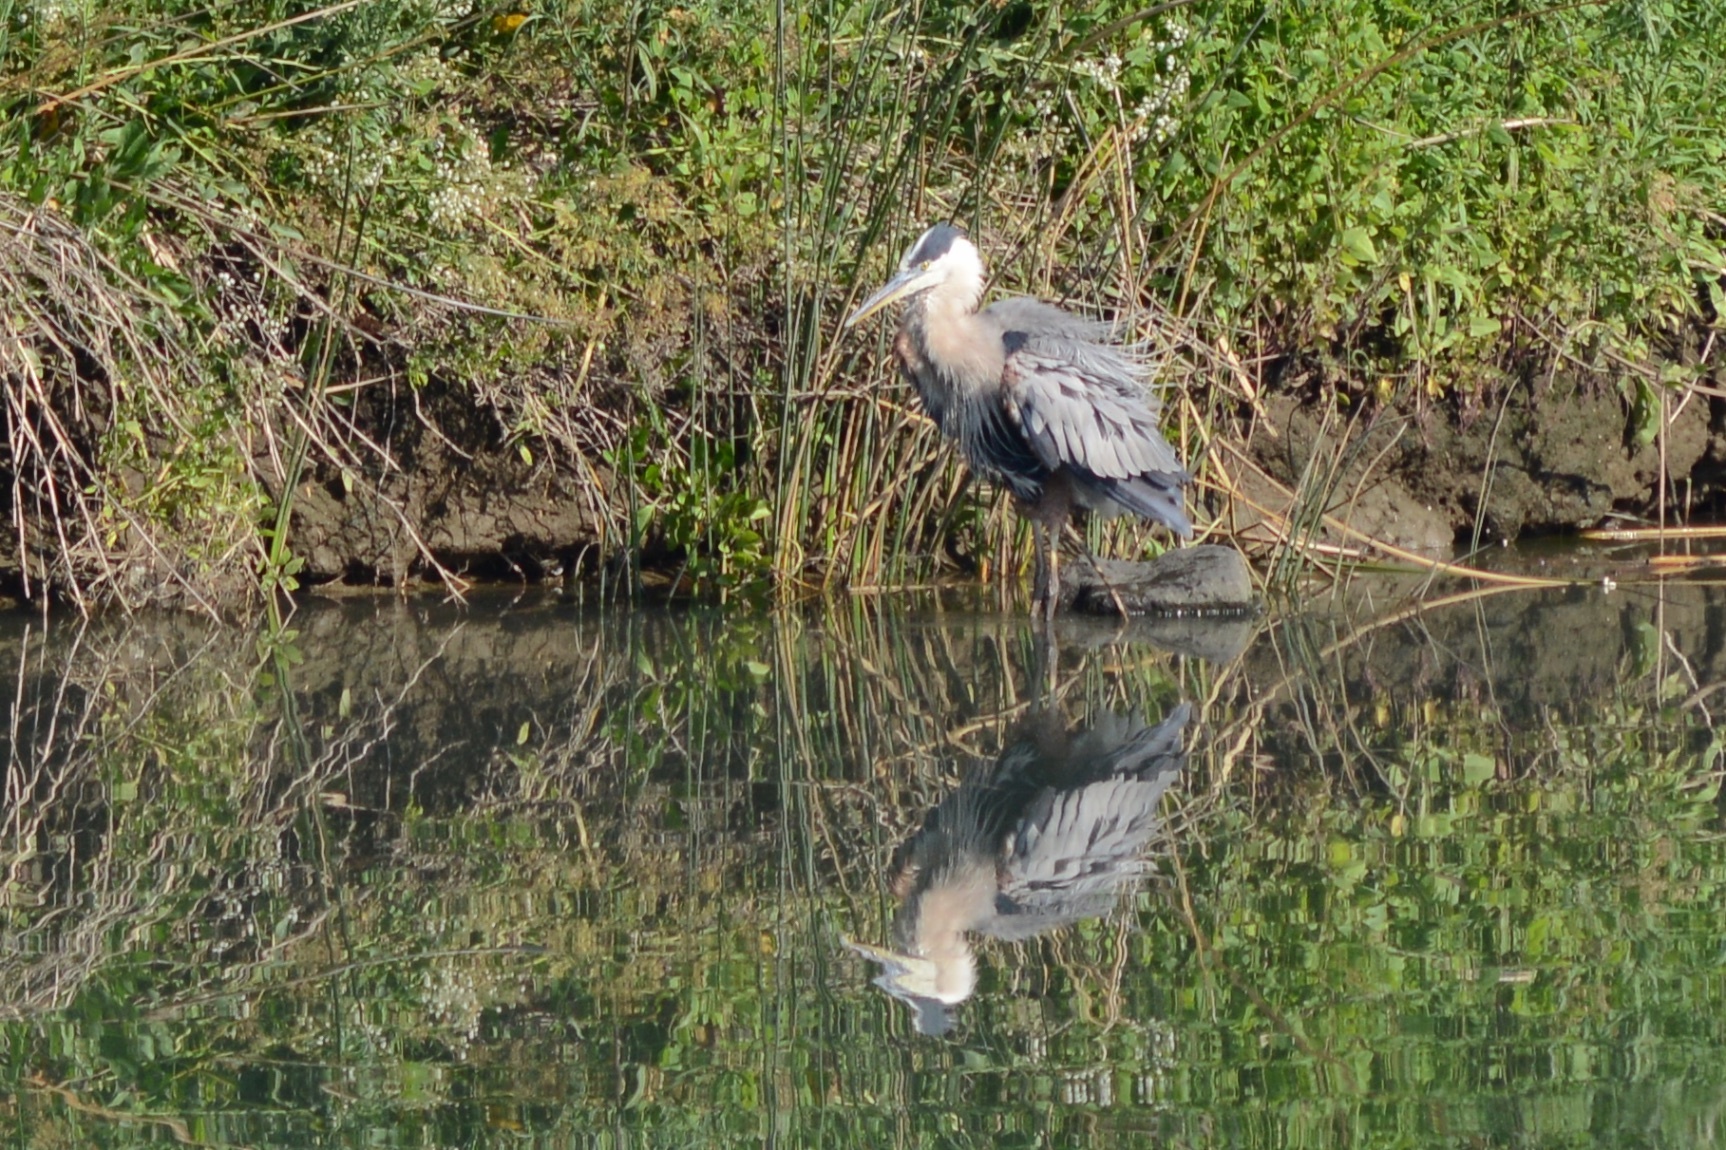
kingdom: Animalia
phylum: Chordata
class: Aves
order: Pelecaniformes
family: Ardeidae
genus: Ardea
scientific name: Ardea herodias
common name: Great blue heron
